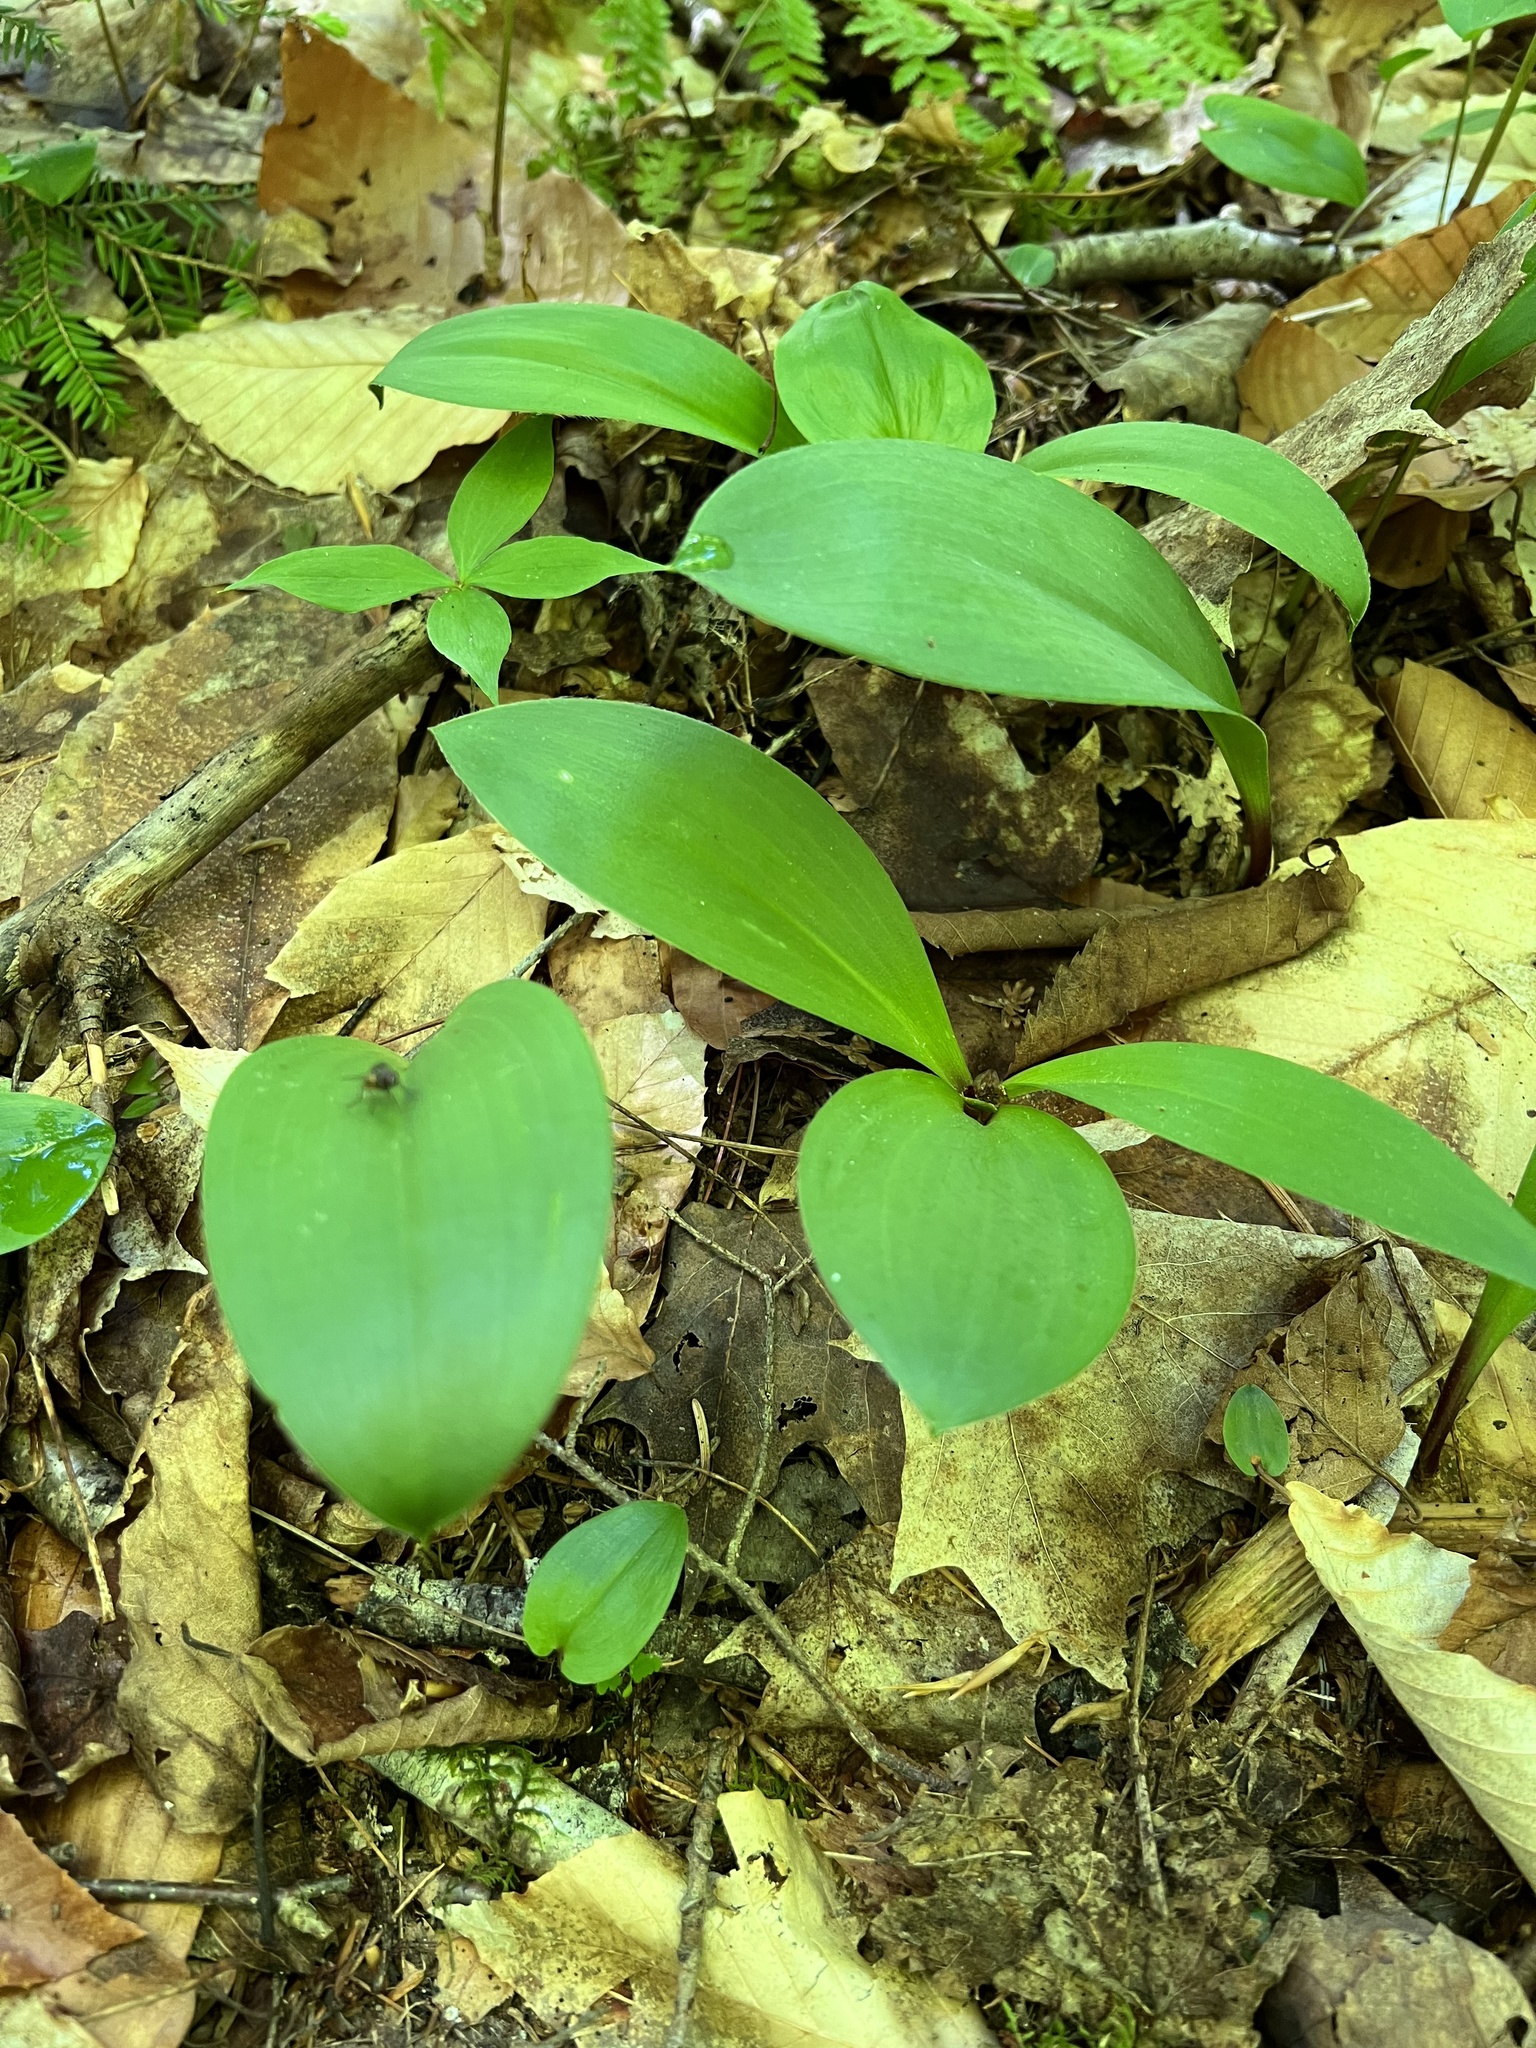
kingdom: Plantae
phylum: Tracheophyta
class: Liliopsida
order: Asparagales
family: Asparagaceae
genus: Maianthemum
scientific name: Maianthemum canadense
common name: False lily-of-the-valley
